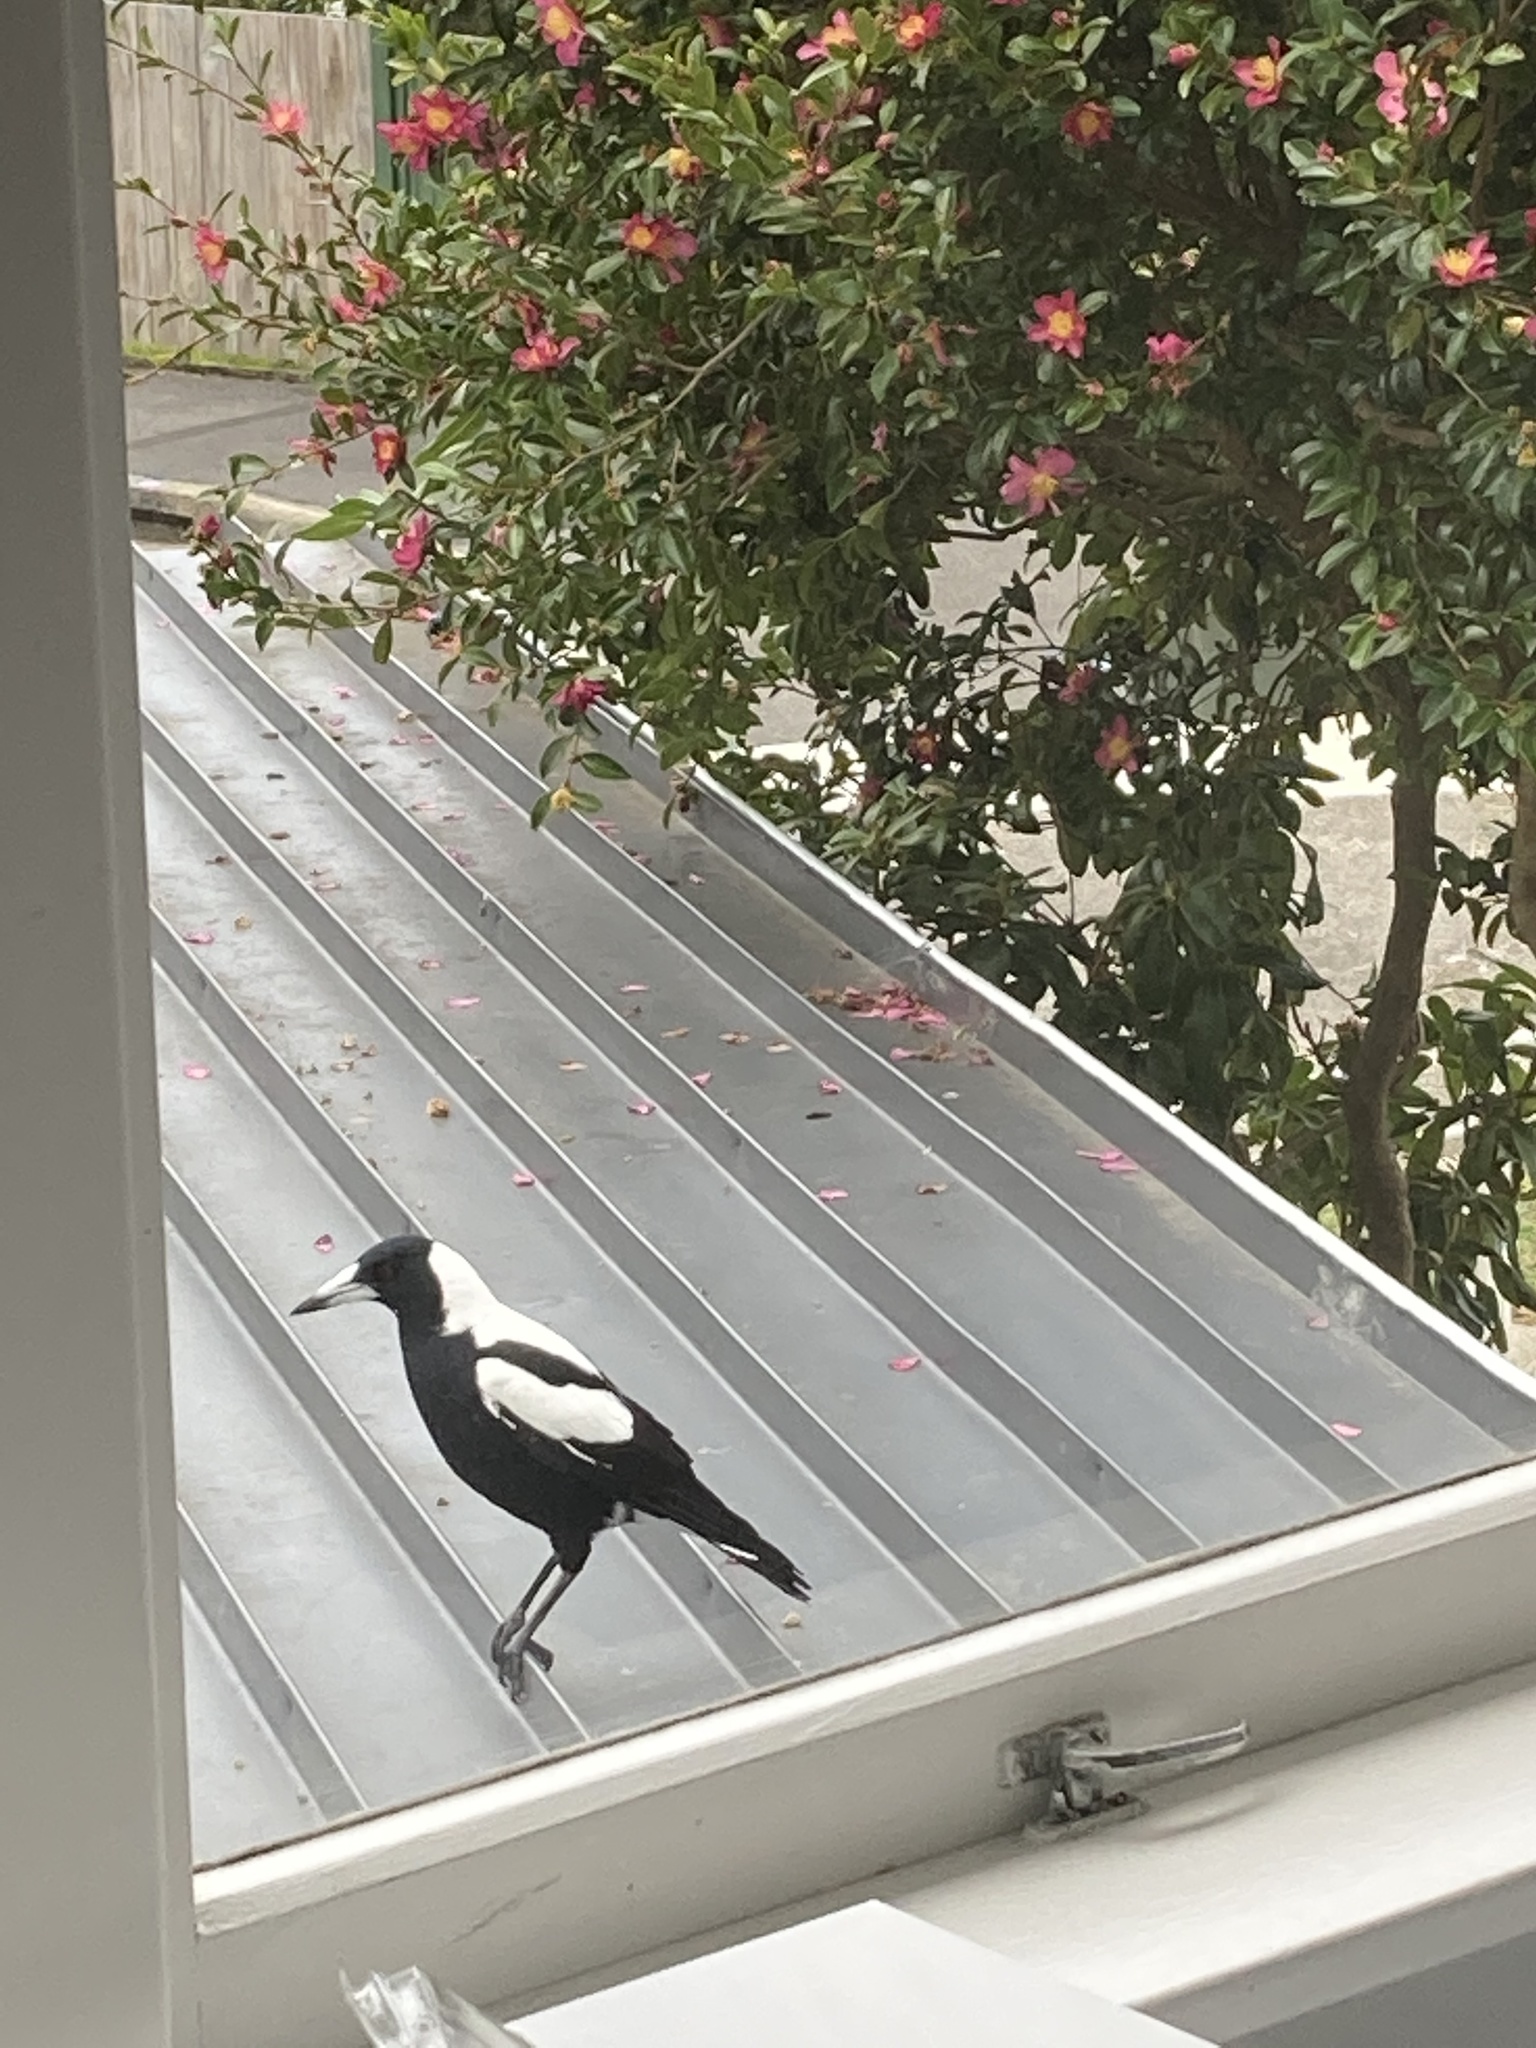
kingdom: Animalia
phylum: Chordata
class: Aves
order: Passeriformes
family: Cracticidae
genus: Gymnorhina
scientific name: Gymnorhina tibicen
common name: Australian magpie
